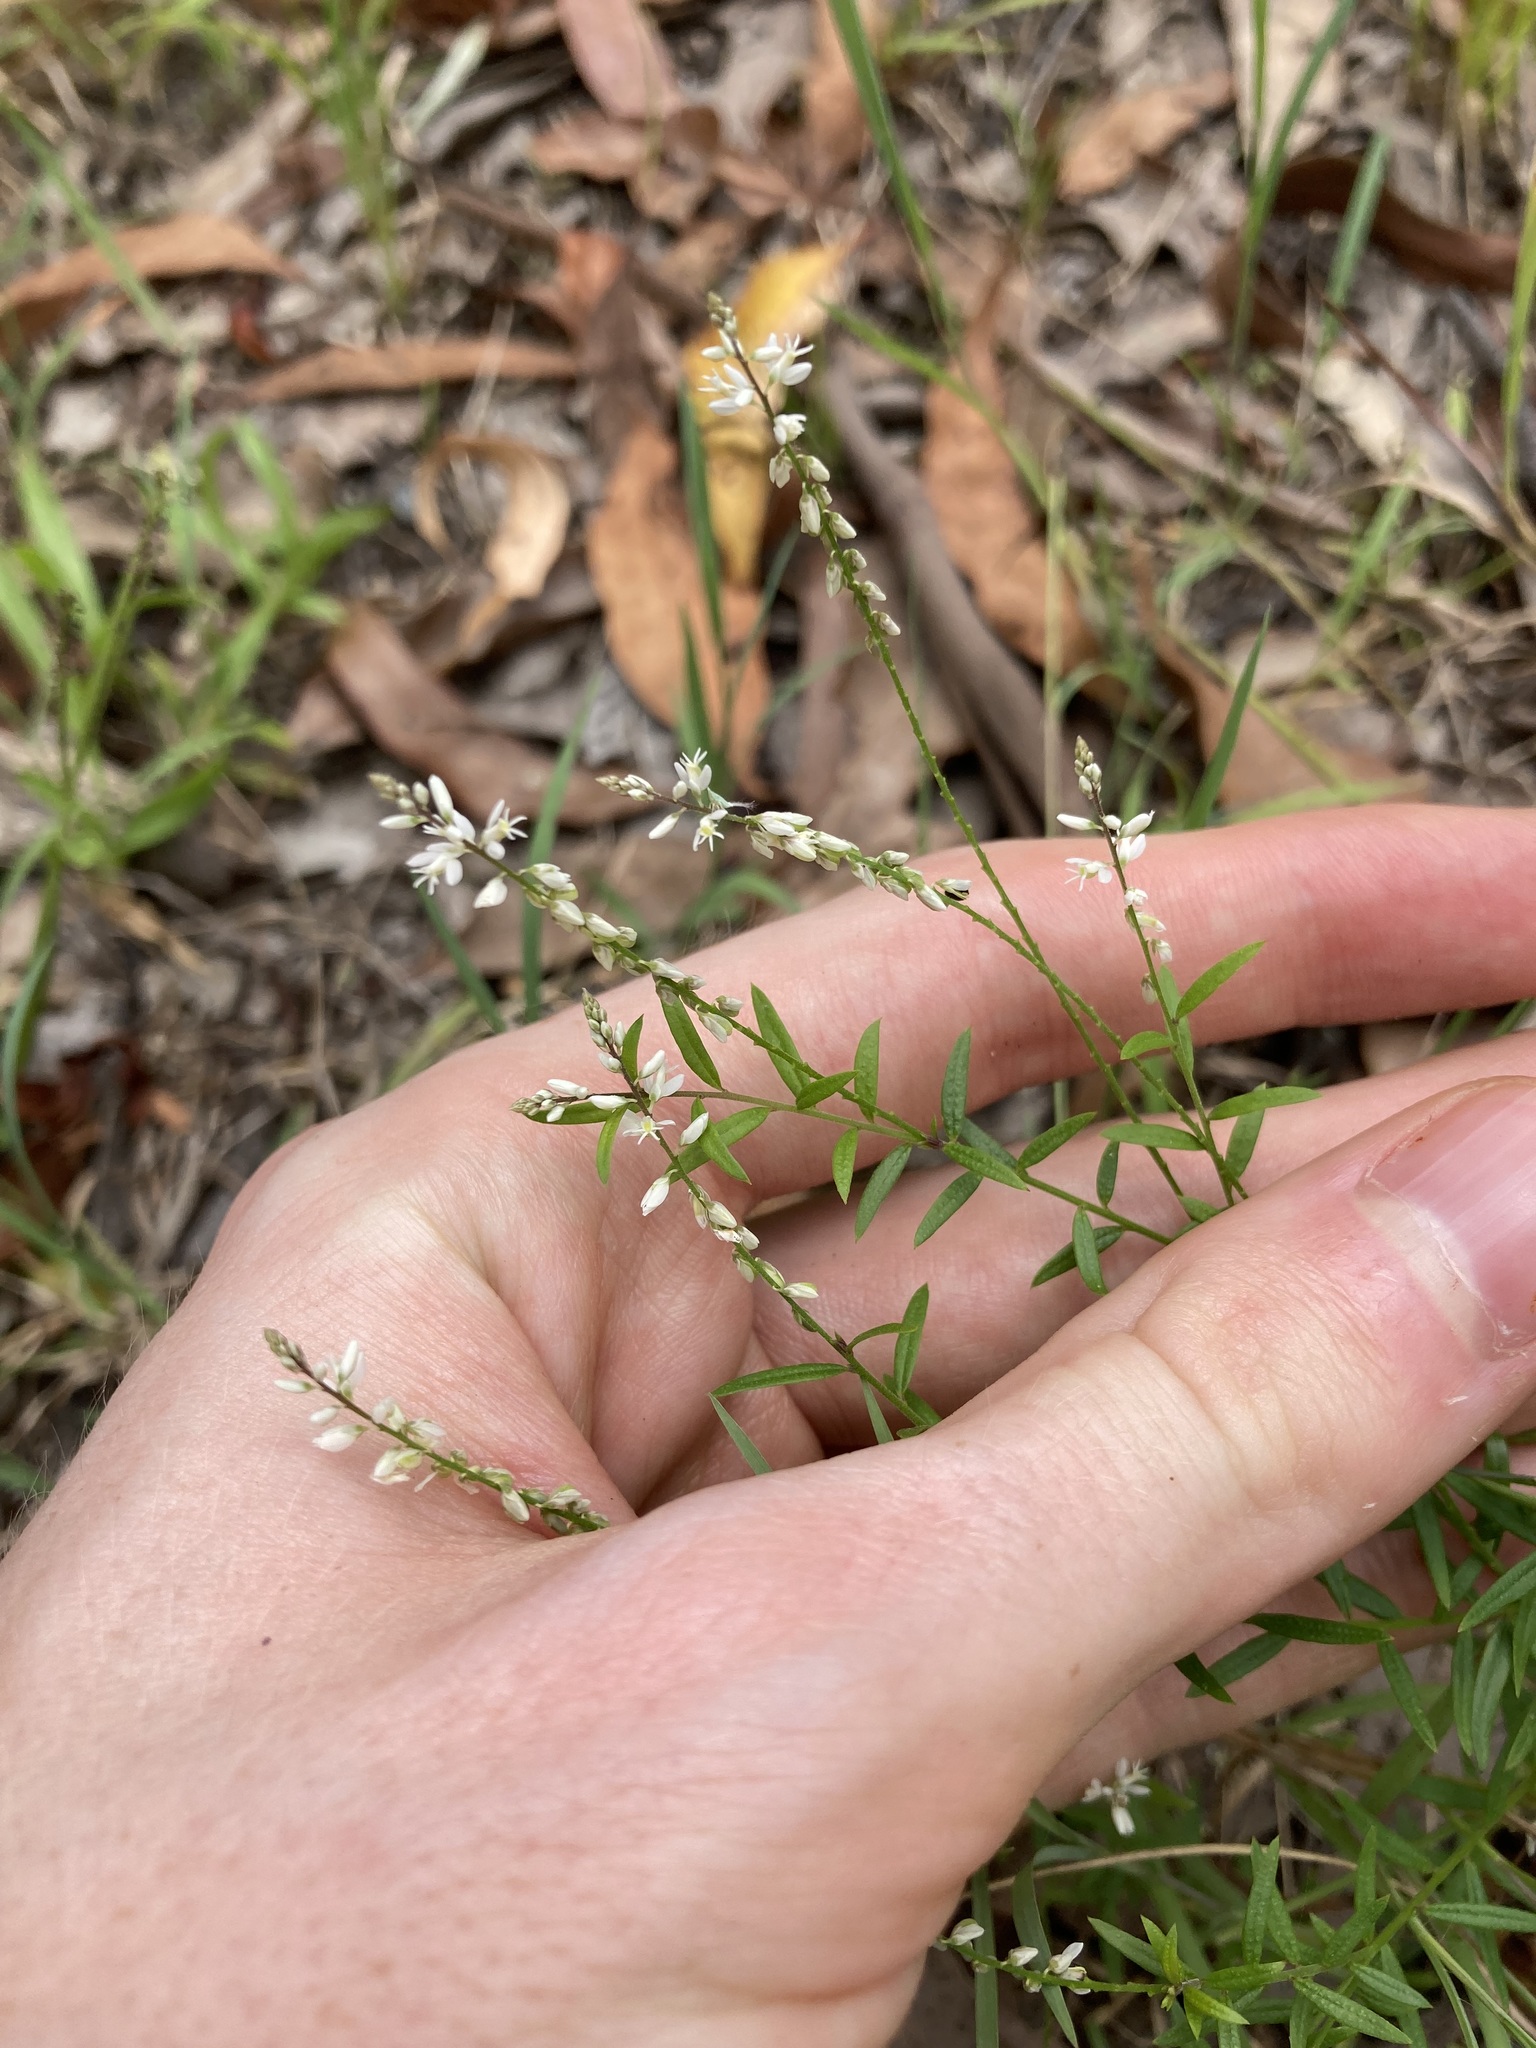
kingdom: Plantae
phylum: Tracheophyta
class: Magnoliopsida
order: Fabales
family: Polygalaceae
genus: Polygala
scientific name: Polygala paniculata
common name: Orosne
